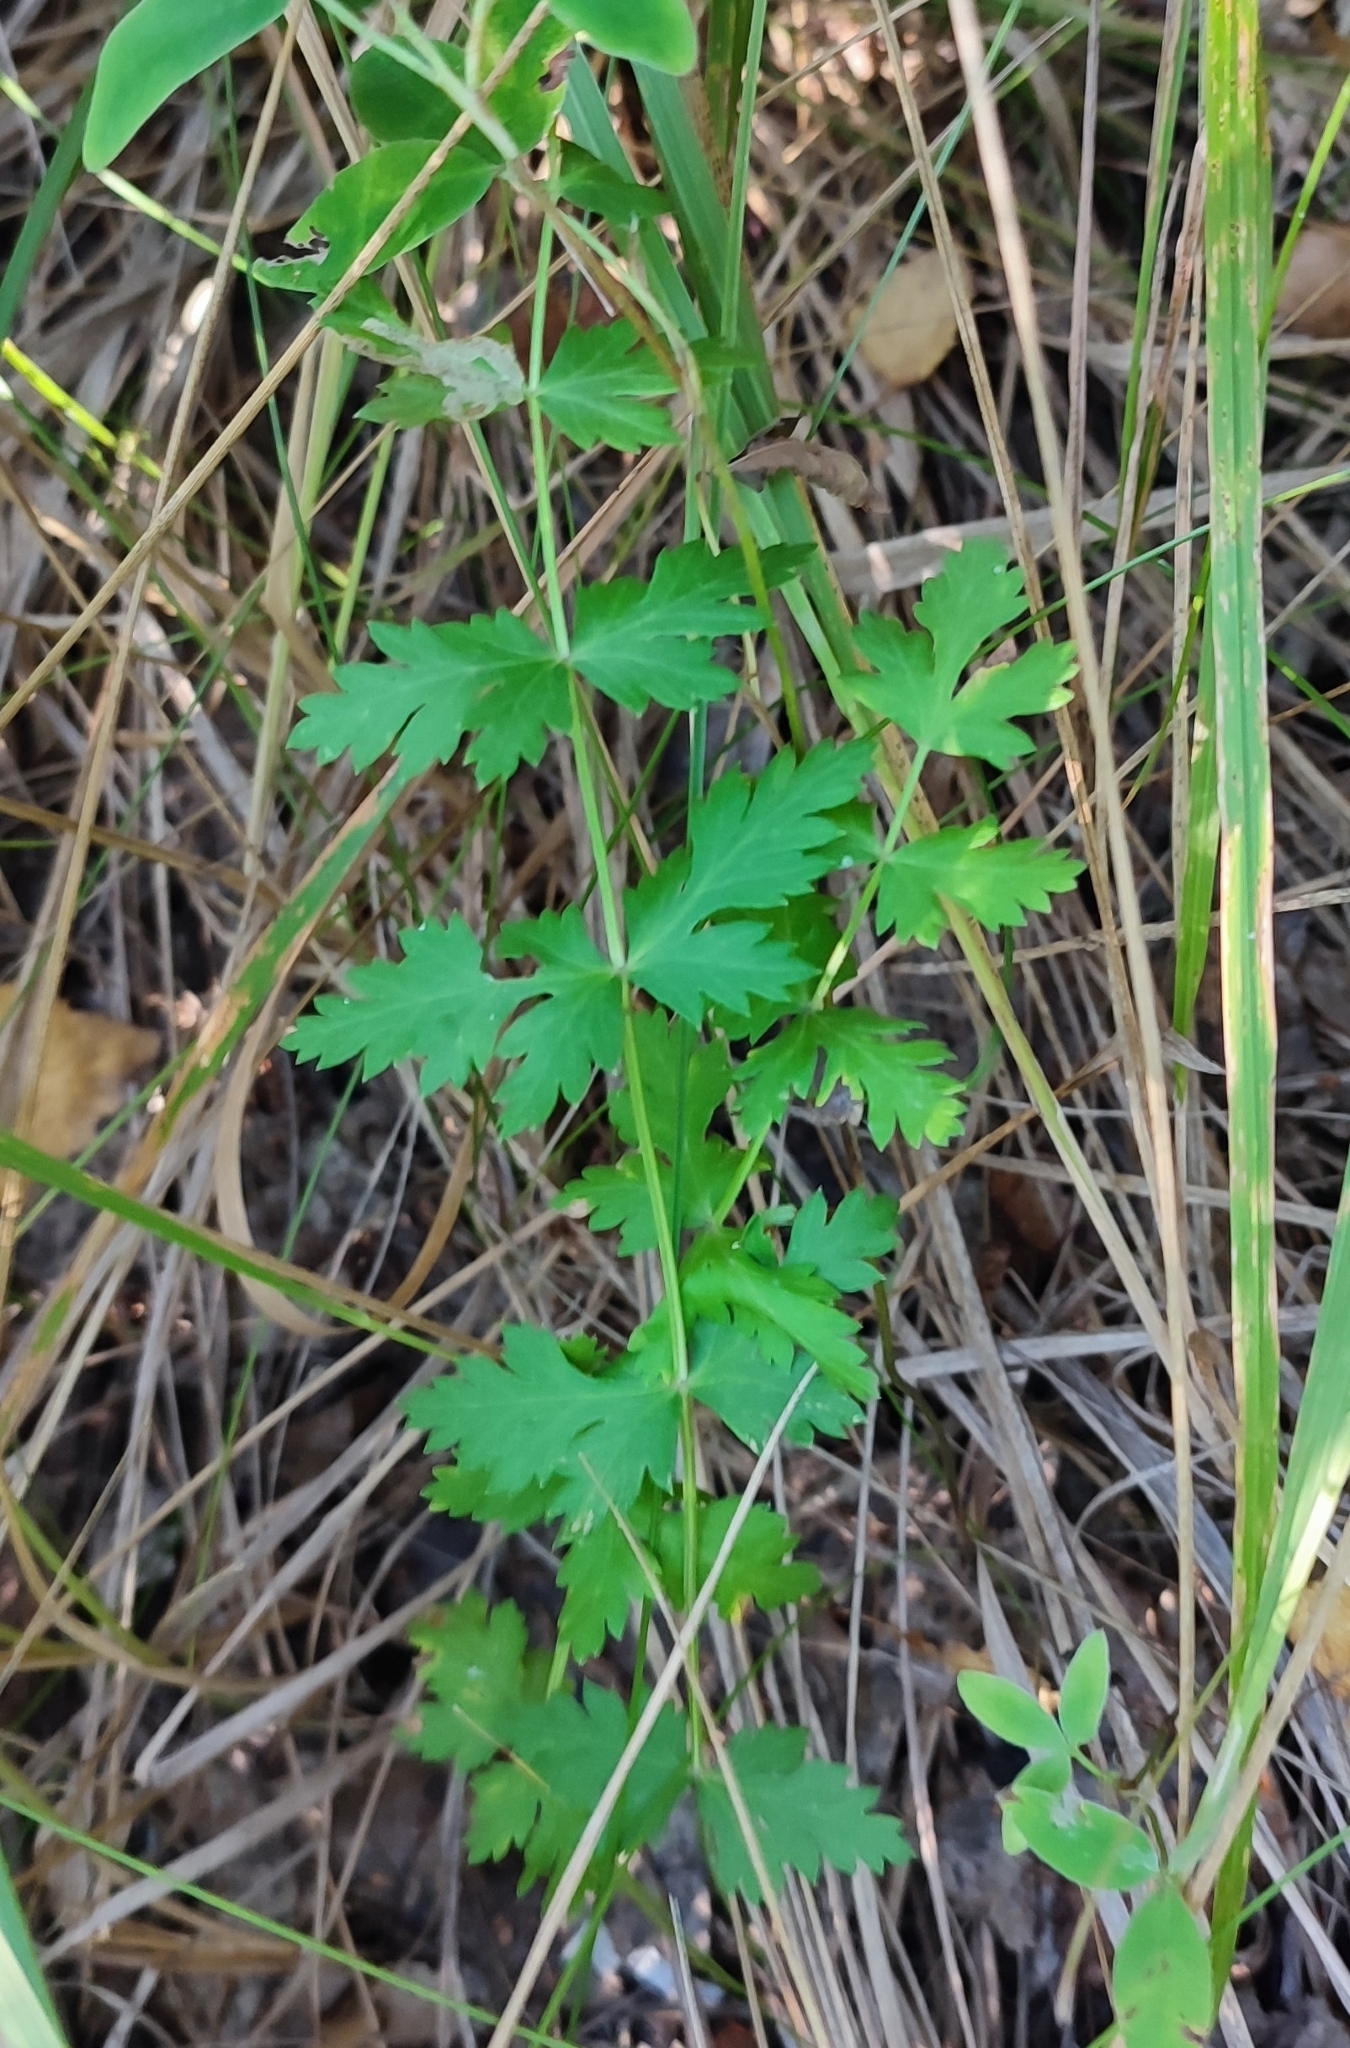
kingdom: Plantae
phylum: Tracheophyta
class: Magnoliopsida
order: Apiales
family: Apiaceae
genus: Seseli
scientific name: Seseli libanotis
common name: Mooncarrot
